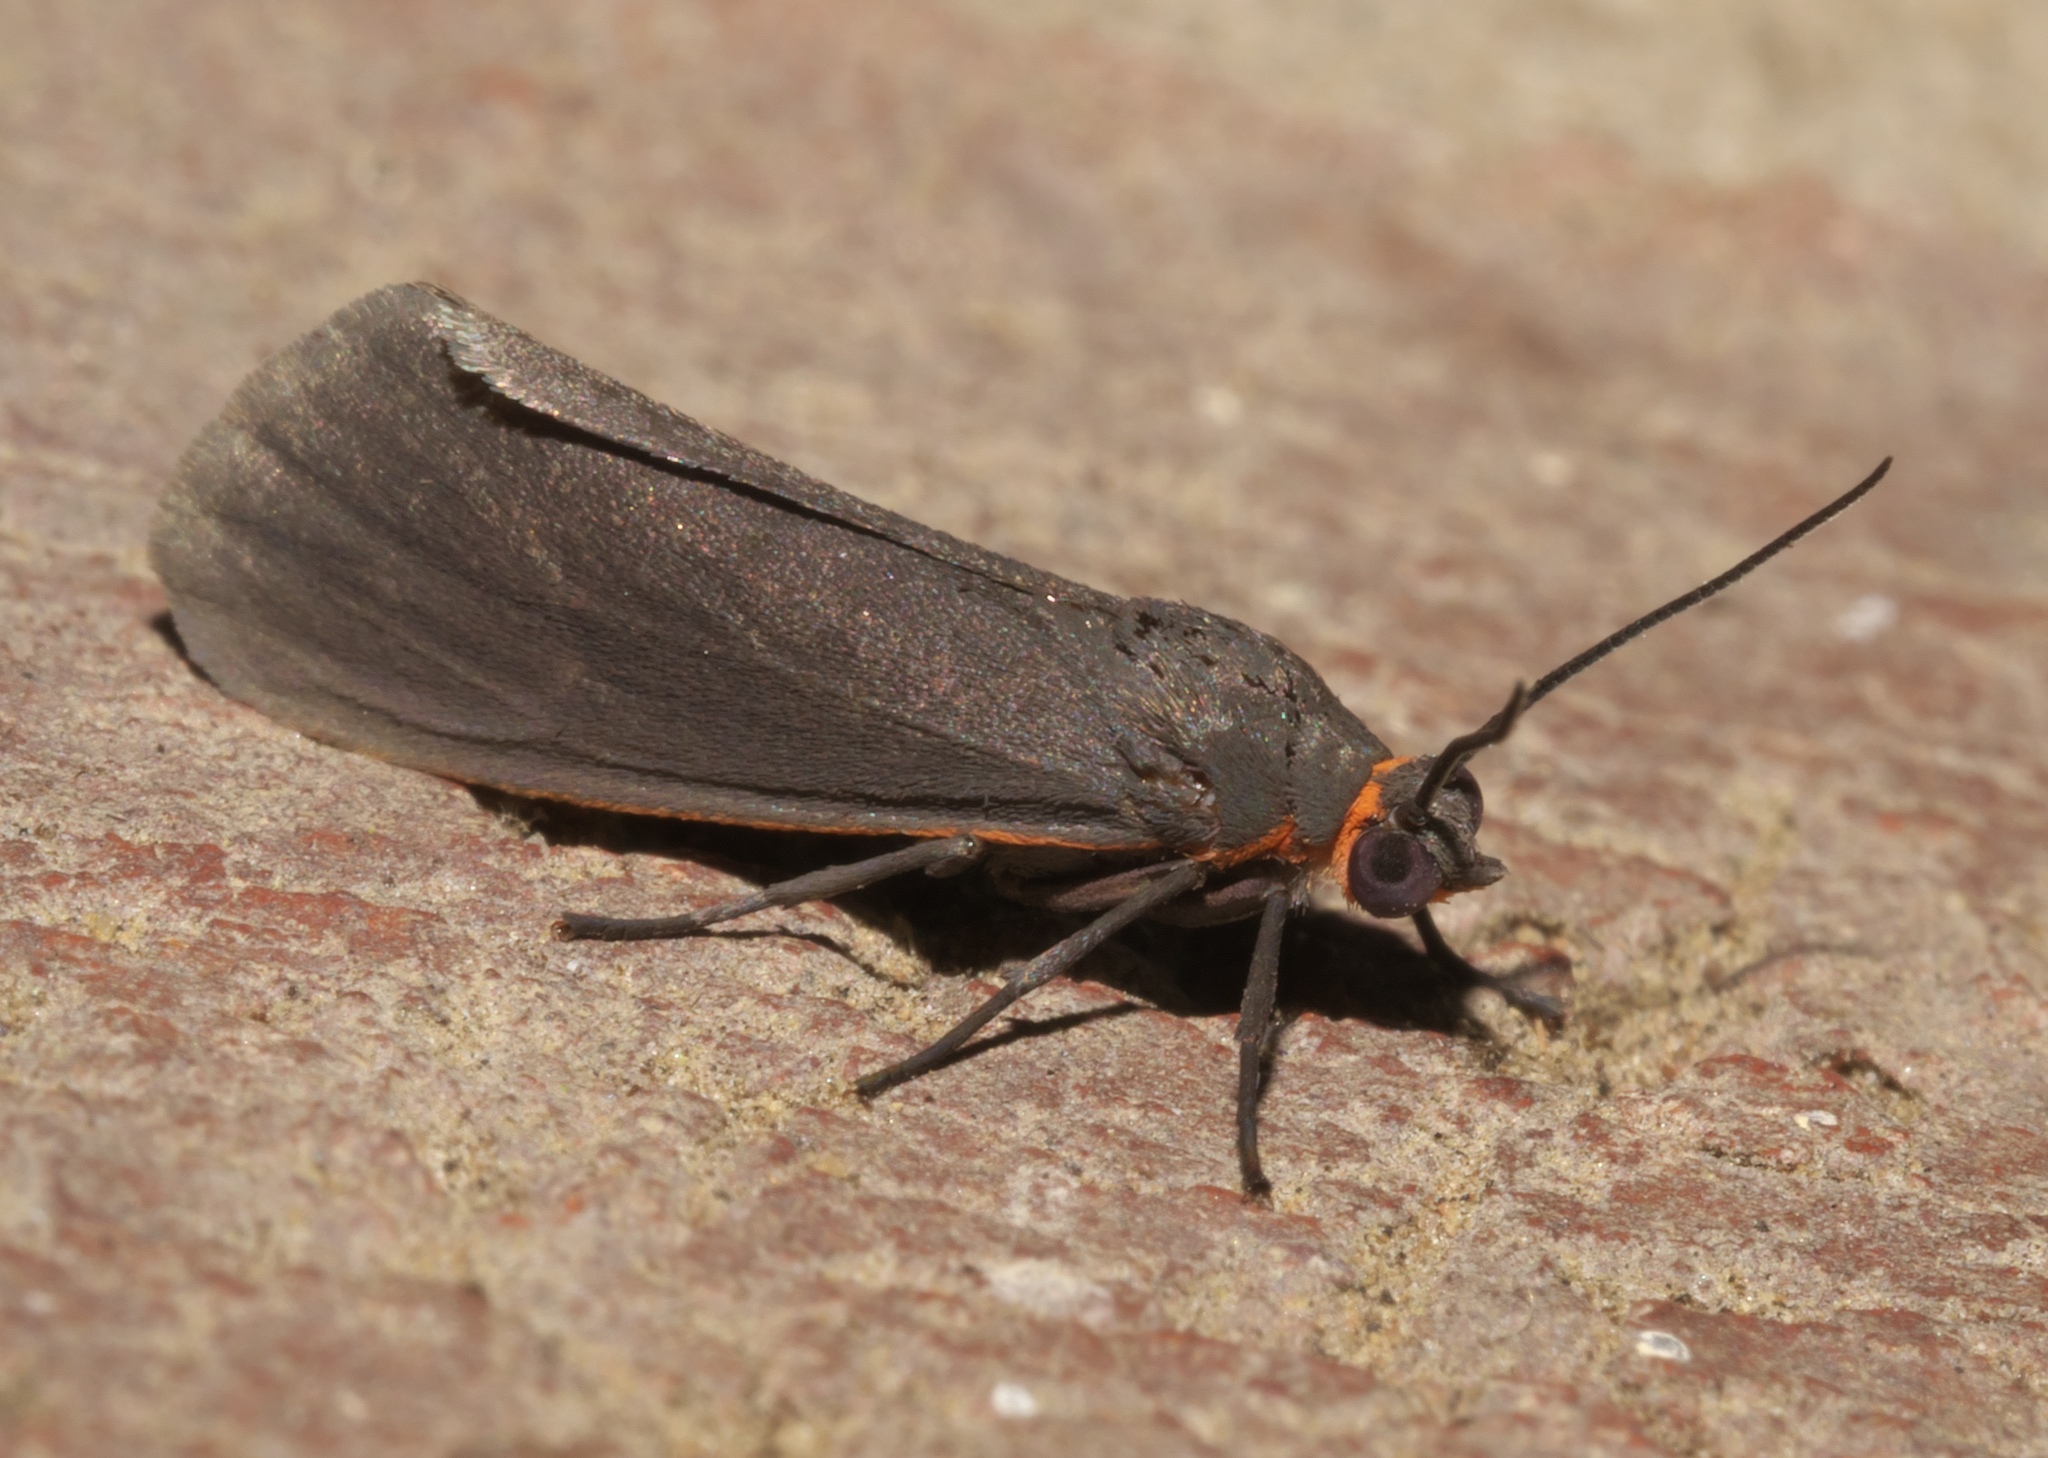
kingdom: Animalia
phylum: Arthropoda
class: Insecta
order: Lepidoptera
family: Erebidae
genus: Virbia
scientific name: Virbia laeta
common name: Joyful holomelina moth
